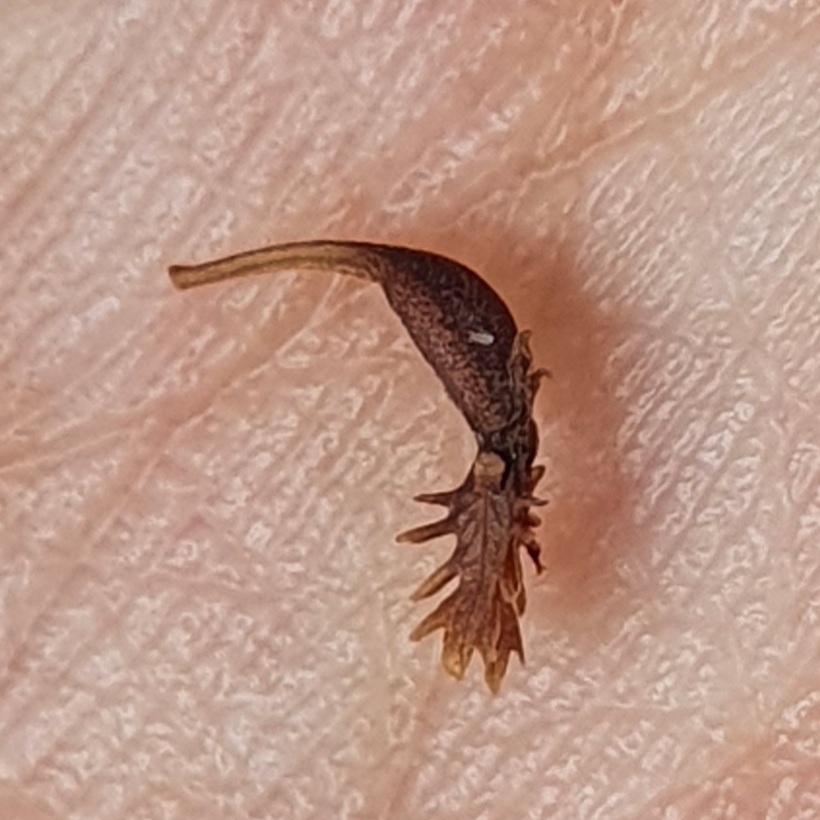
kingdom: Plantae
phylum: Tracheophyta
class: Magnoliopsida
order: Caryophyllales
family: Polygonaceae
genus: Rumex
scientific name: Rumex bucephalophorus
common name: Red dock
